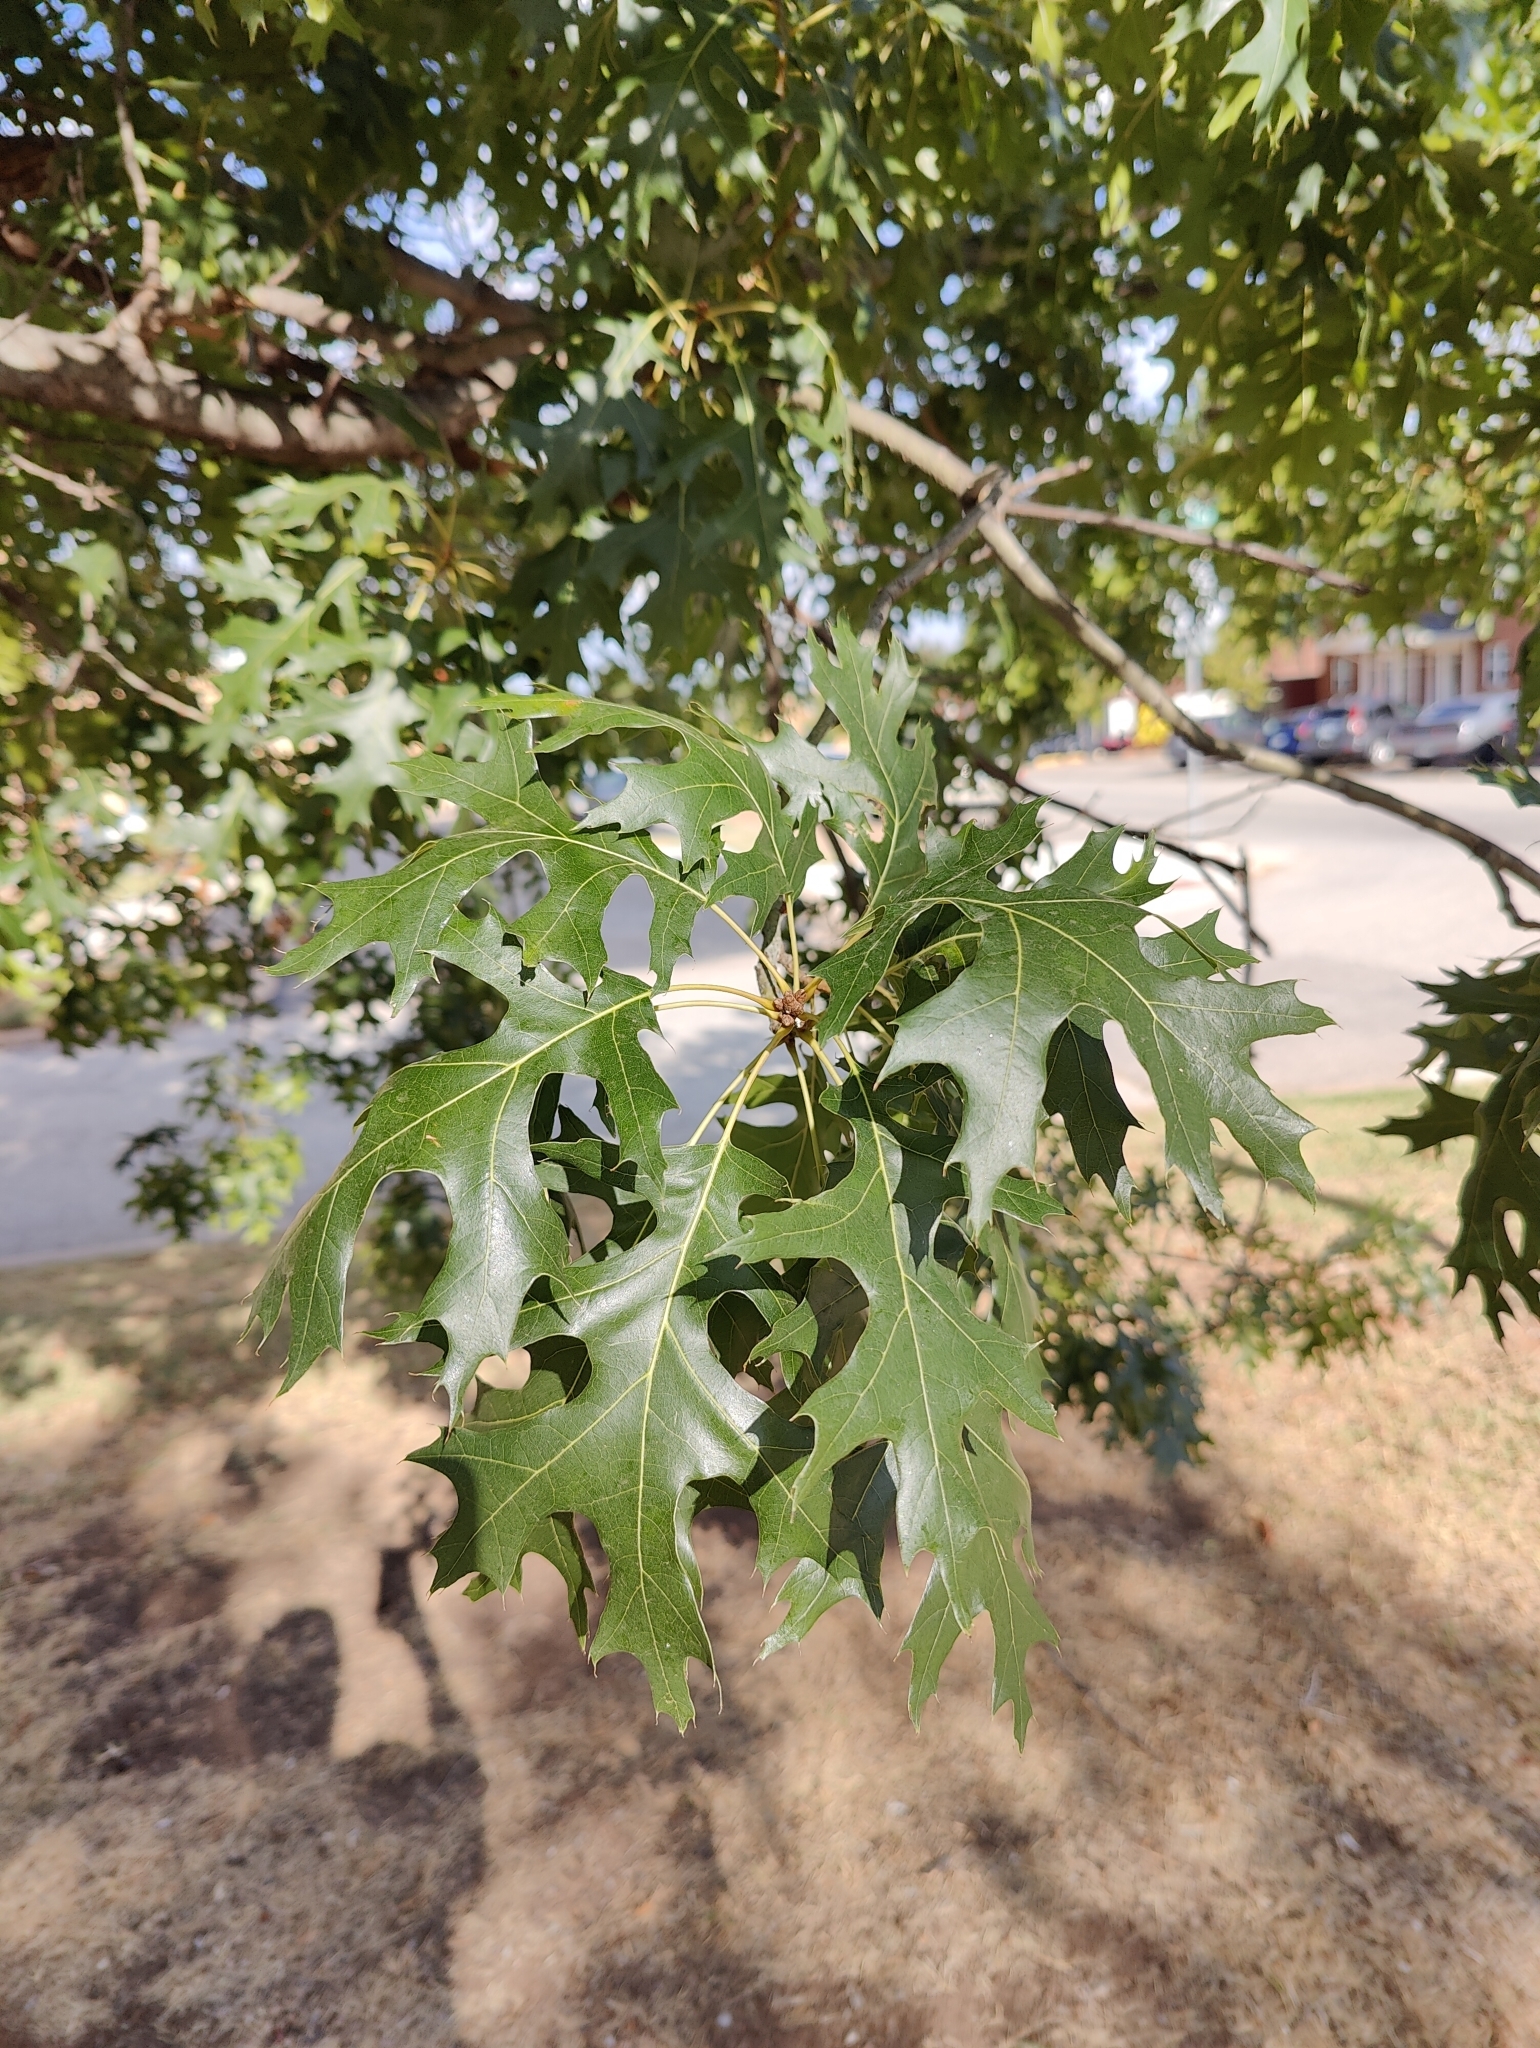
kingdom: Plantae
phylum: Tracheophyta
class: Magnoliopsida
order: Fagales
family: Fagaceae
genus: Quercus
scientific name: Quercus shumardii
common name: Shumard oak
